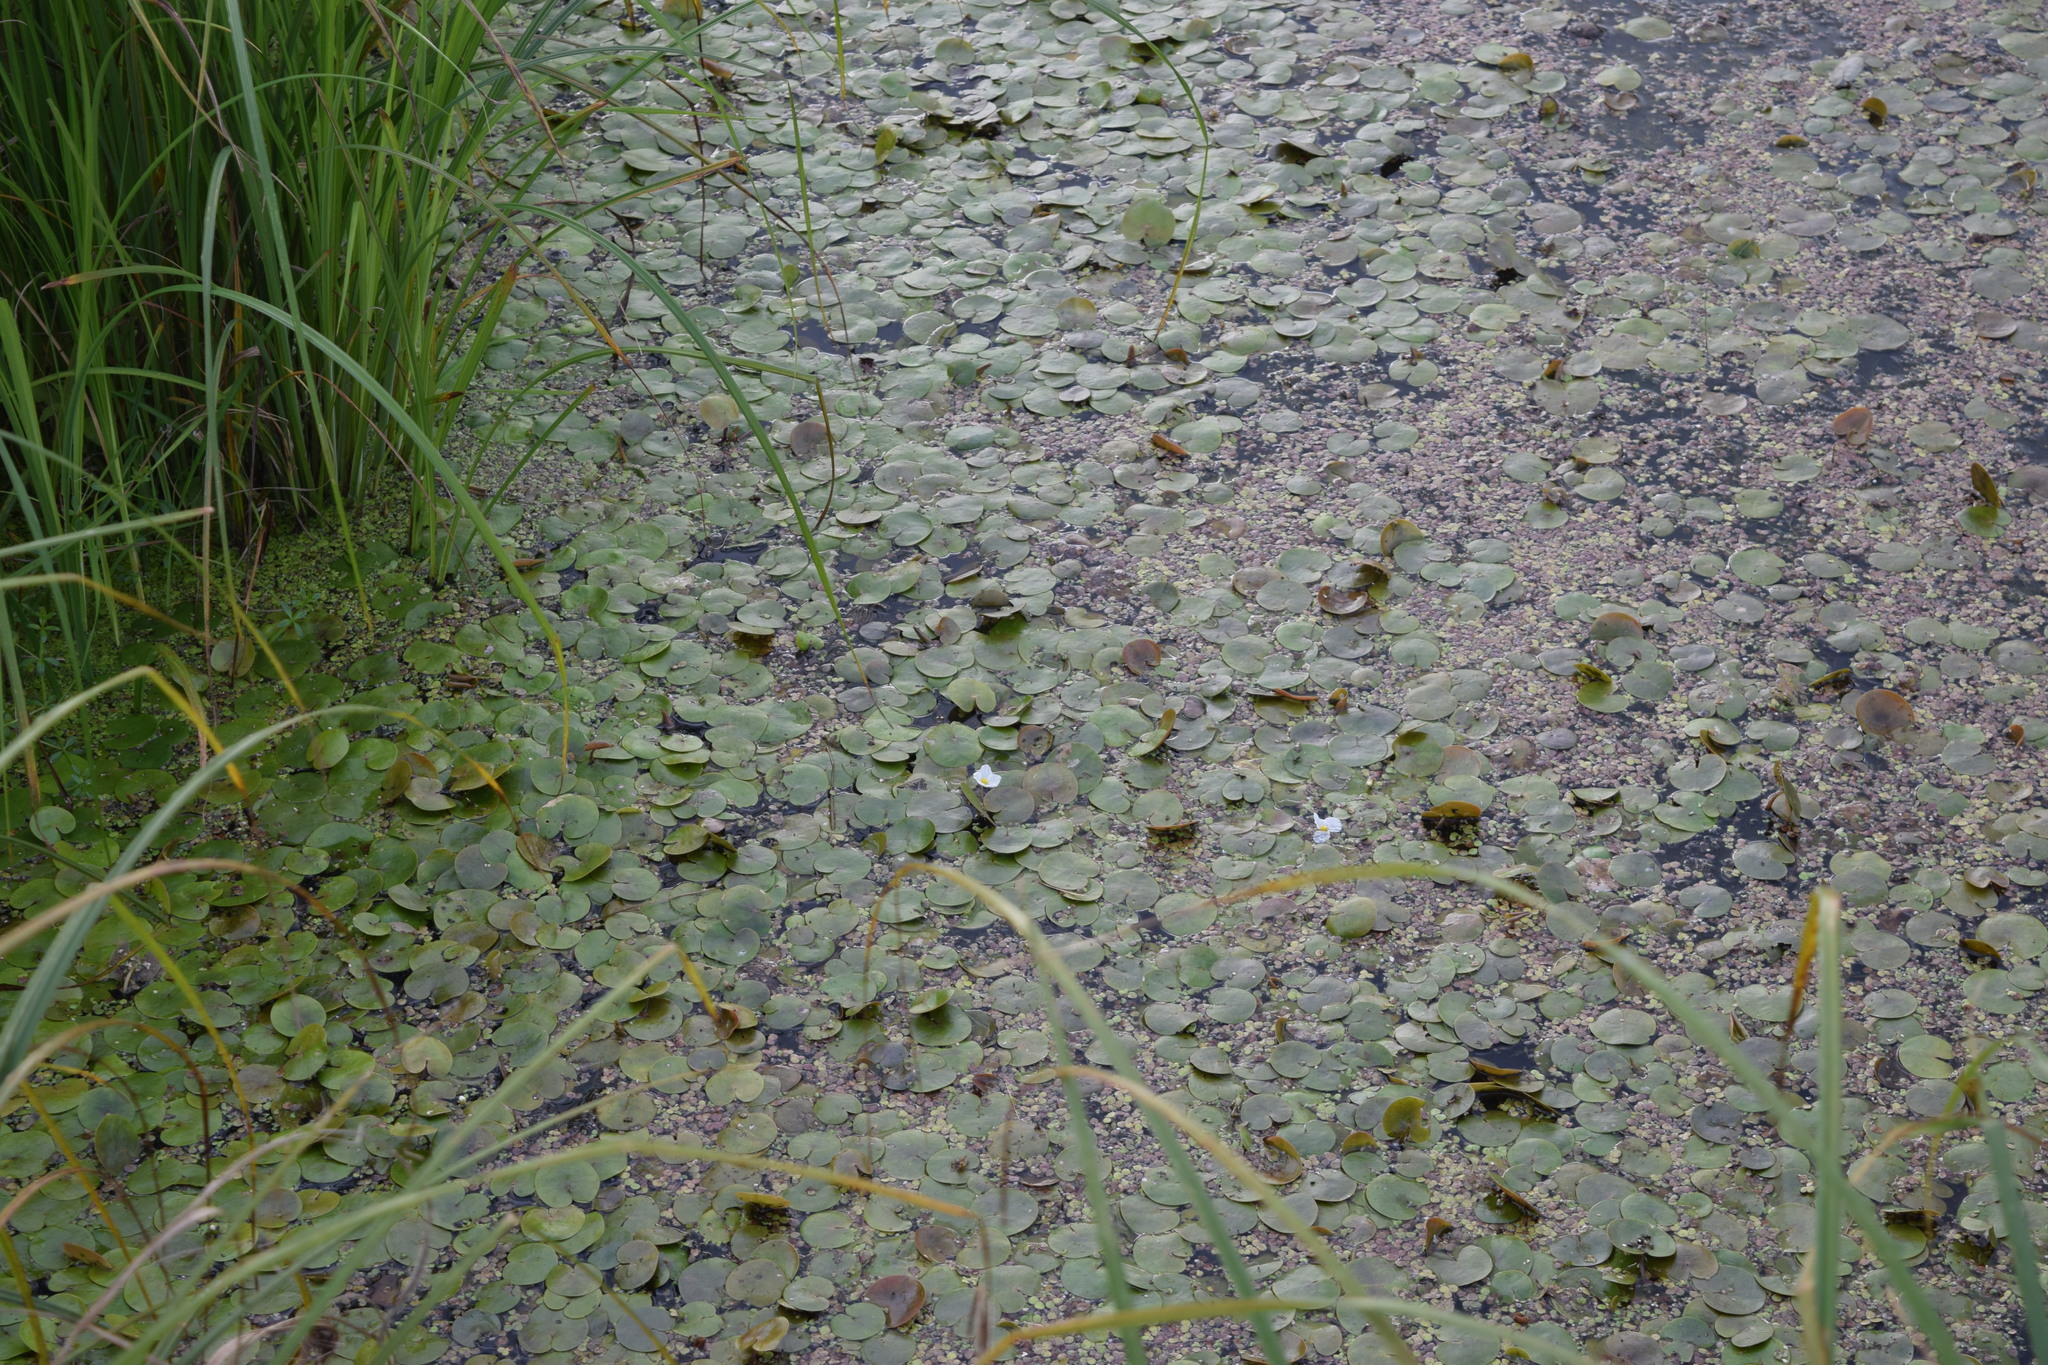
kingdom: Plantae
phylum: Tracheophyta
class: Liliopsida
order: Alismatales
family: Hydrocharitaceae
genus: Hydrocharis
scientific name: Hydrocharis morsus-ranae
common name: Frogbit
